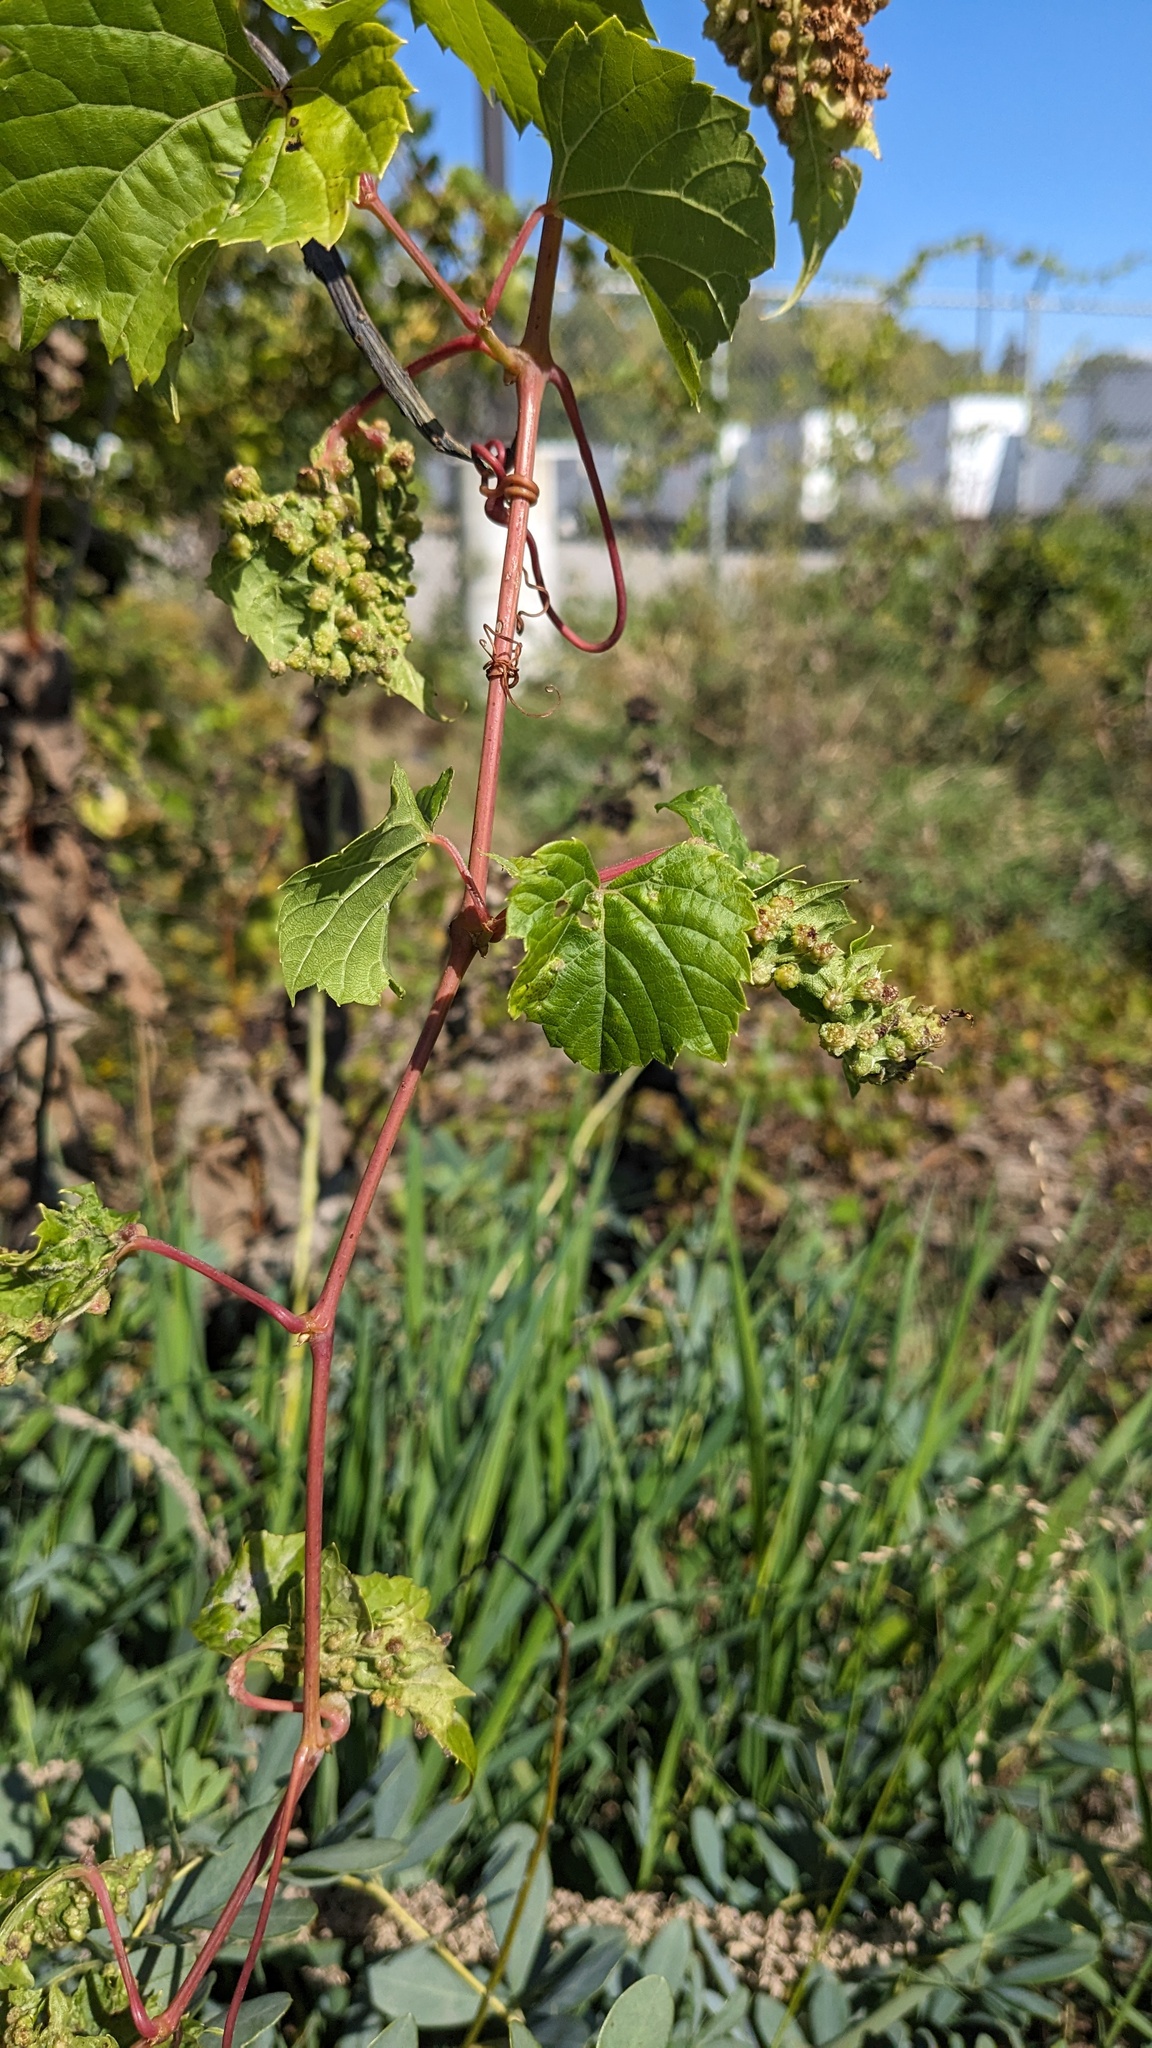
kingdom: Animalia
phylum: Arthropoda
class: Insecta
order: Hemiptera
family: Phylloxeridae
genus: Daktulosphaira
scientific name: Daktulosphaira vitifoliae
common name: Grape phylloxera
